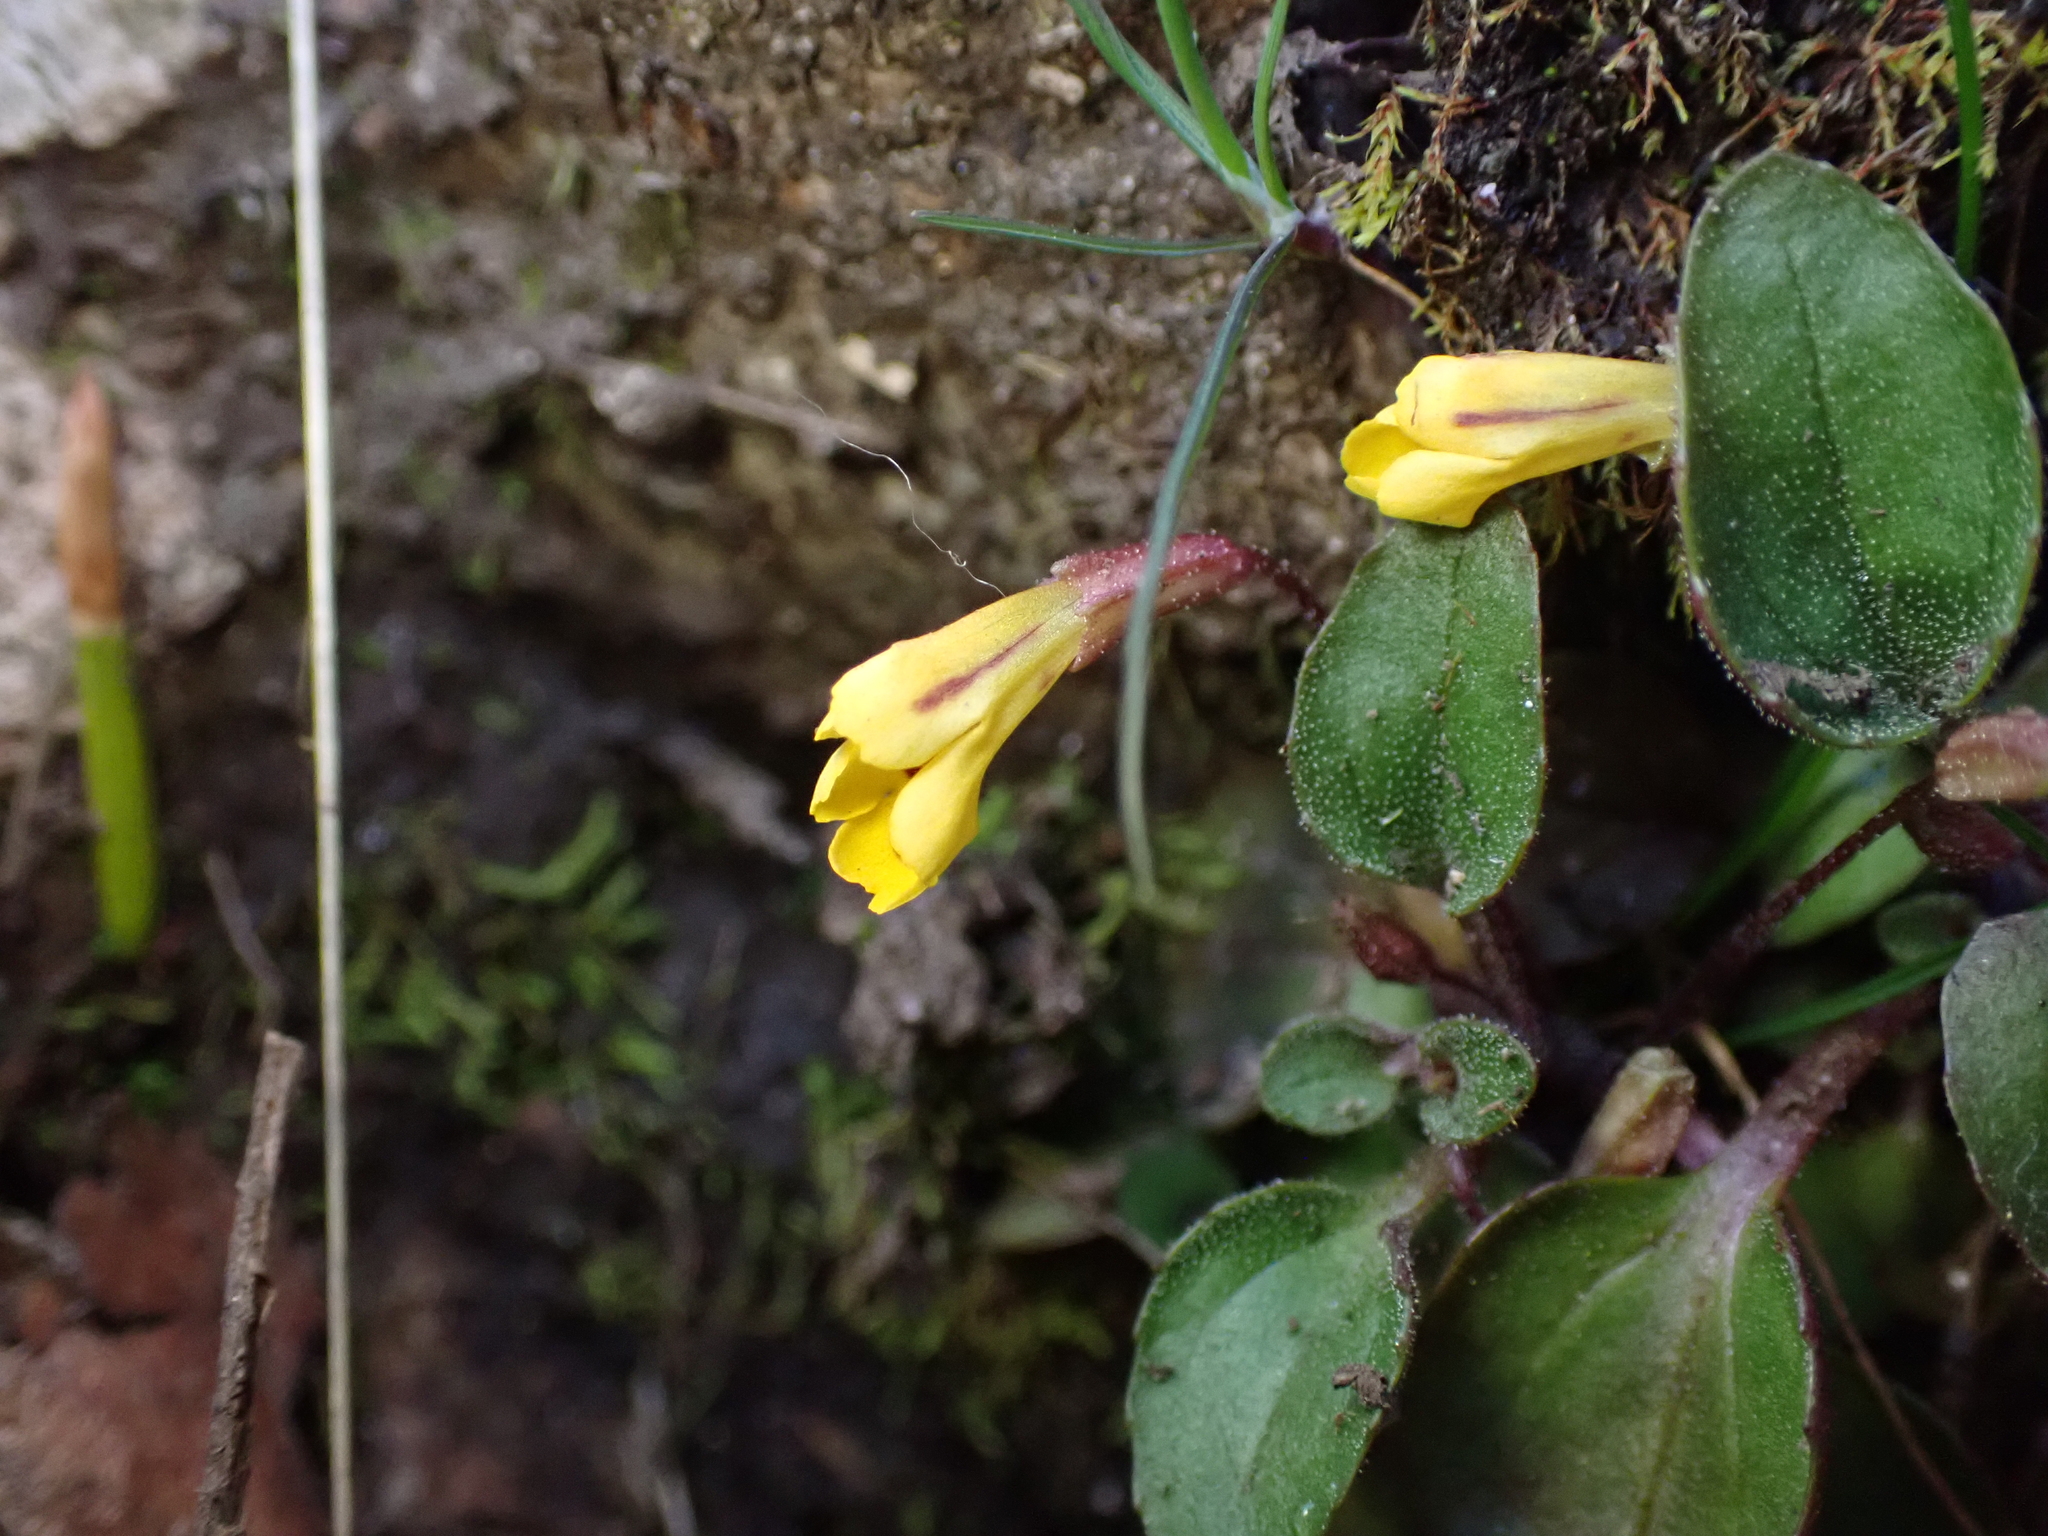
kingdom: Plantae
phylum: Tracheophyta
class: Magnoliopsida
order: Lamiales
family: Phrymaceae
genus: Erythranthe
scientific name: Erythranthe alsinoides
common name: Chickweed monkeyflower
